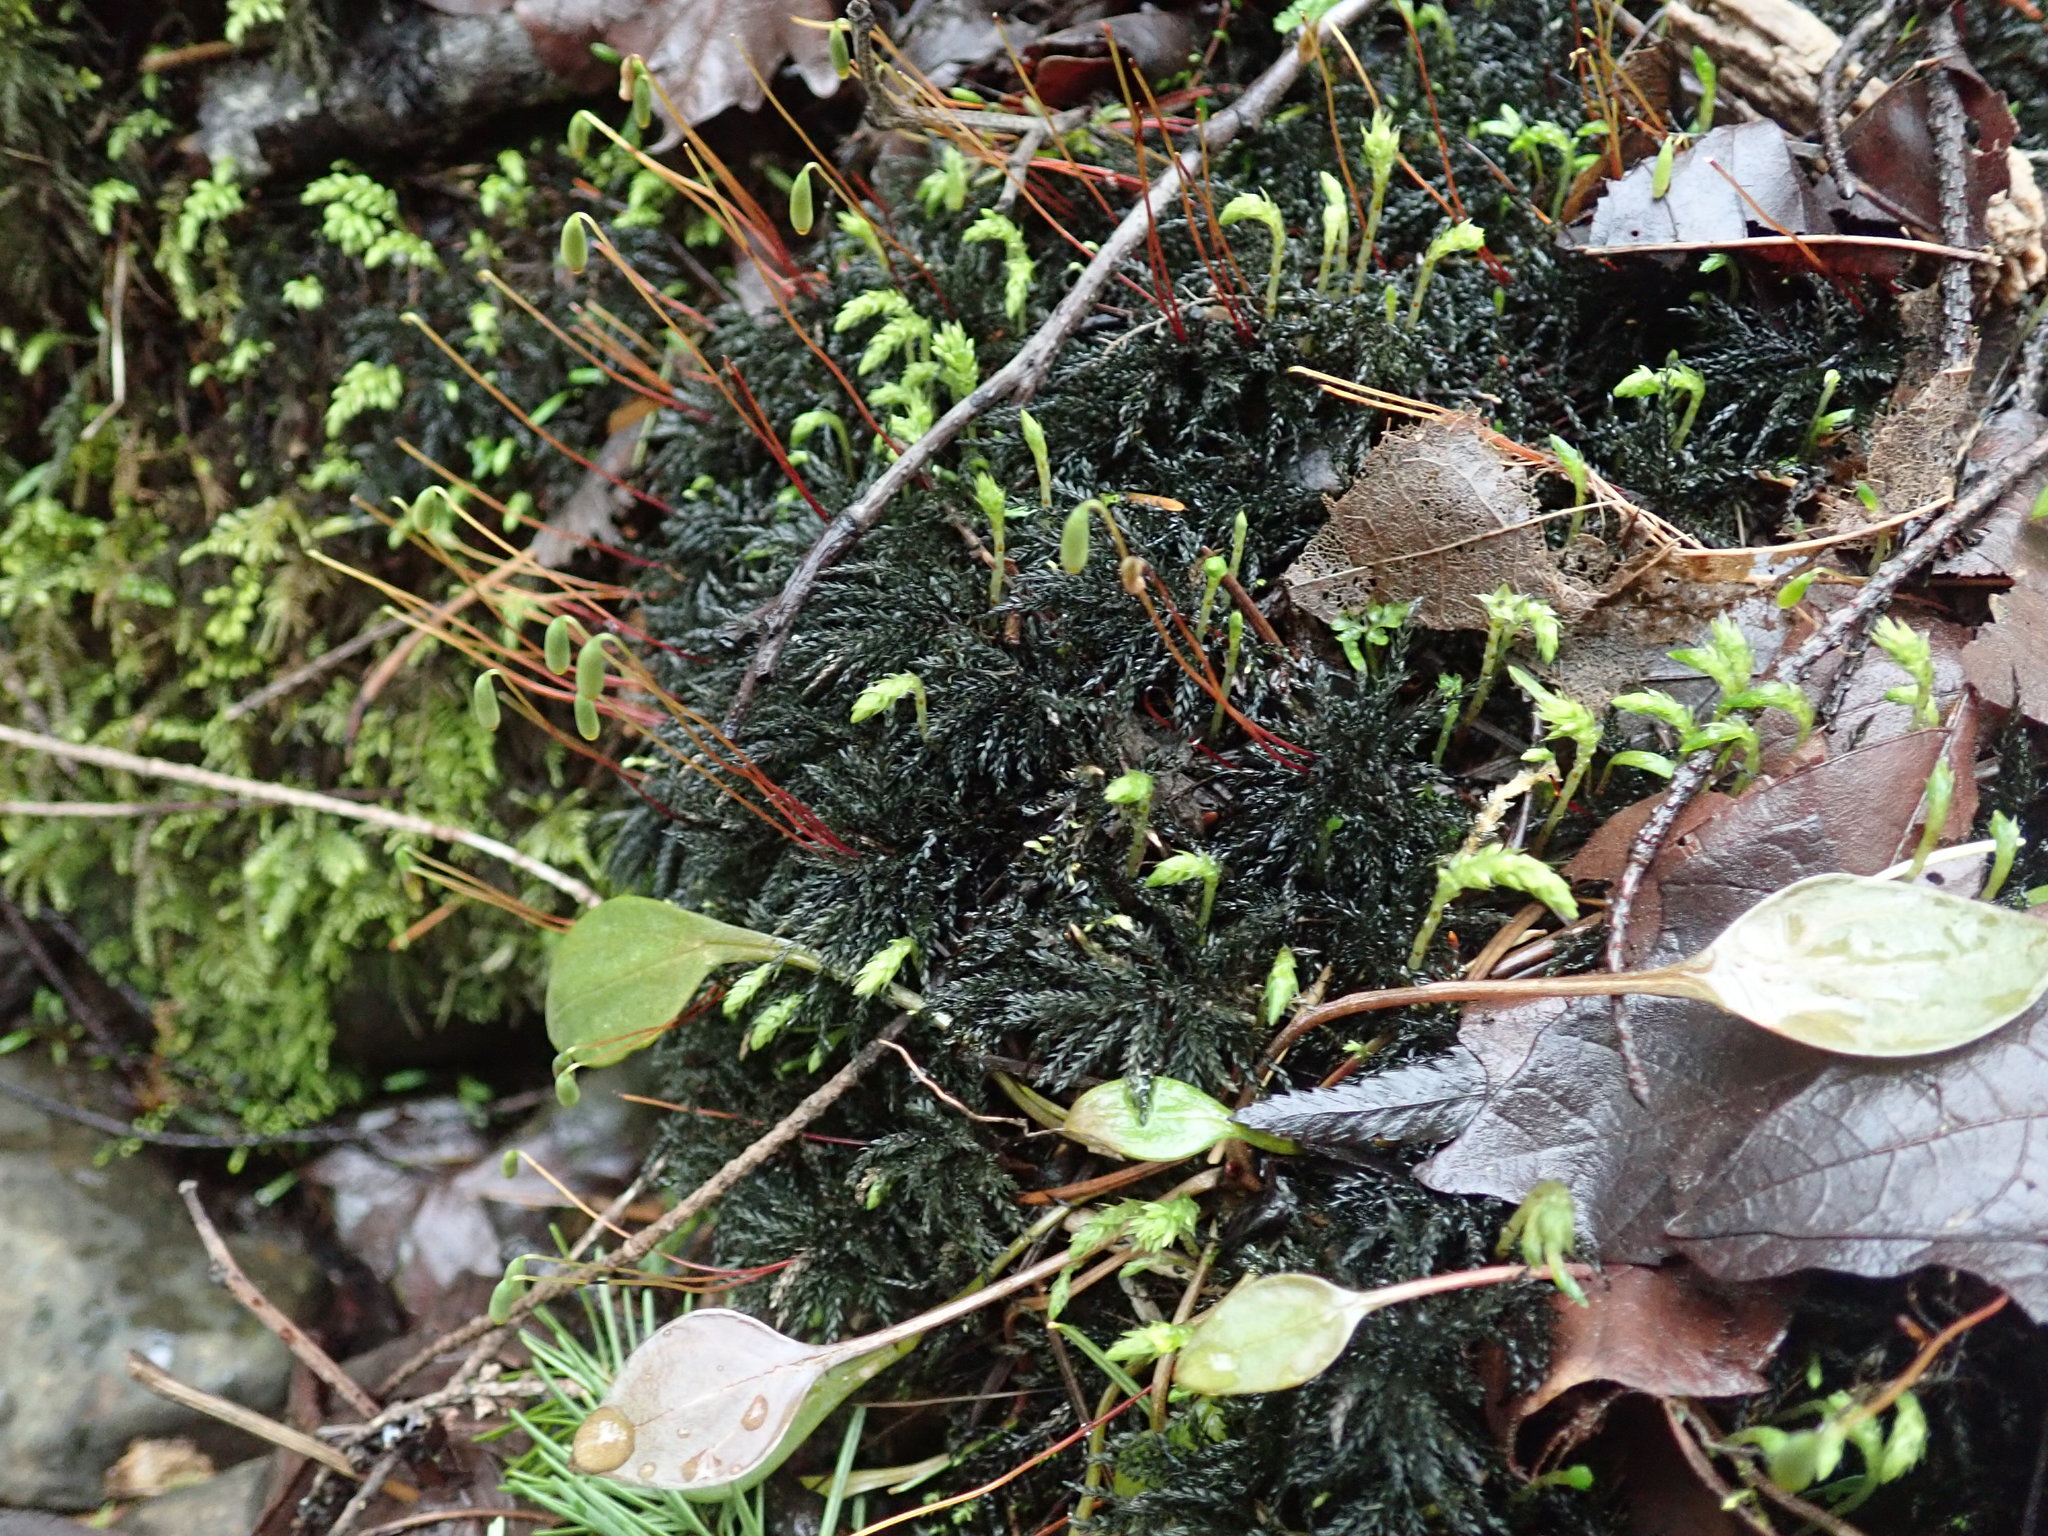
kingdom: Plantae
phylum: Bryophyta
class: Bryopsida
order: Bryales
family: Mniaceae
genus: Leucolepis
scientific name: Leucolepis acanthoneura
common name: Leucolepis umbrella moss
